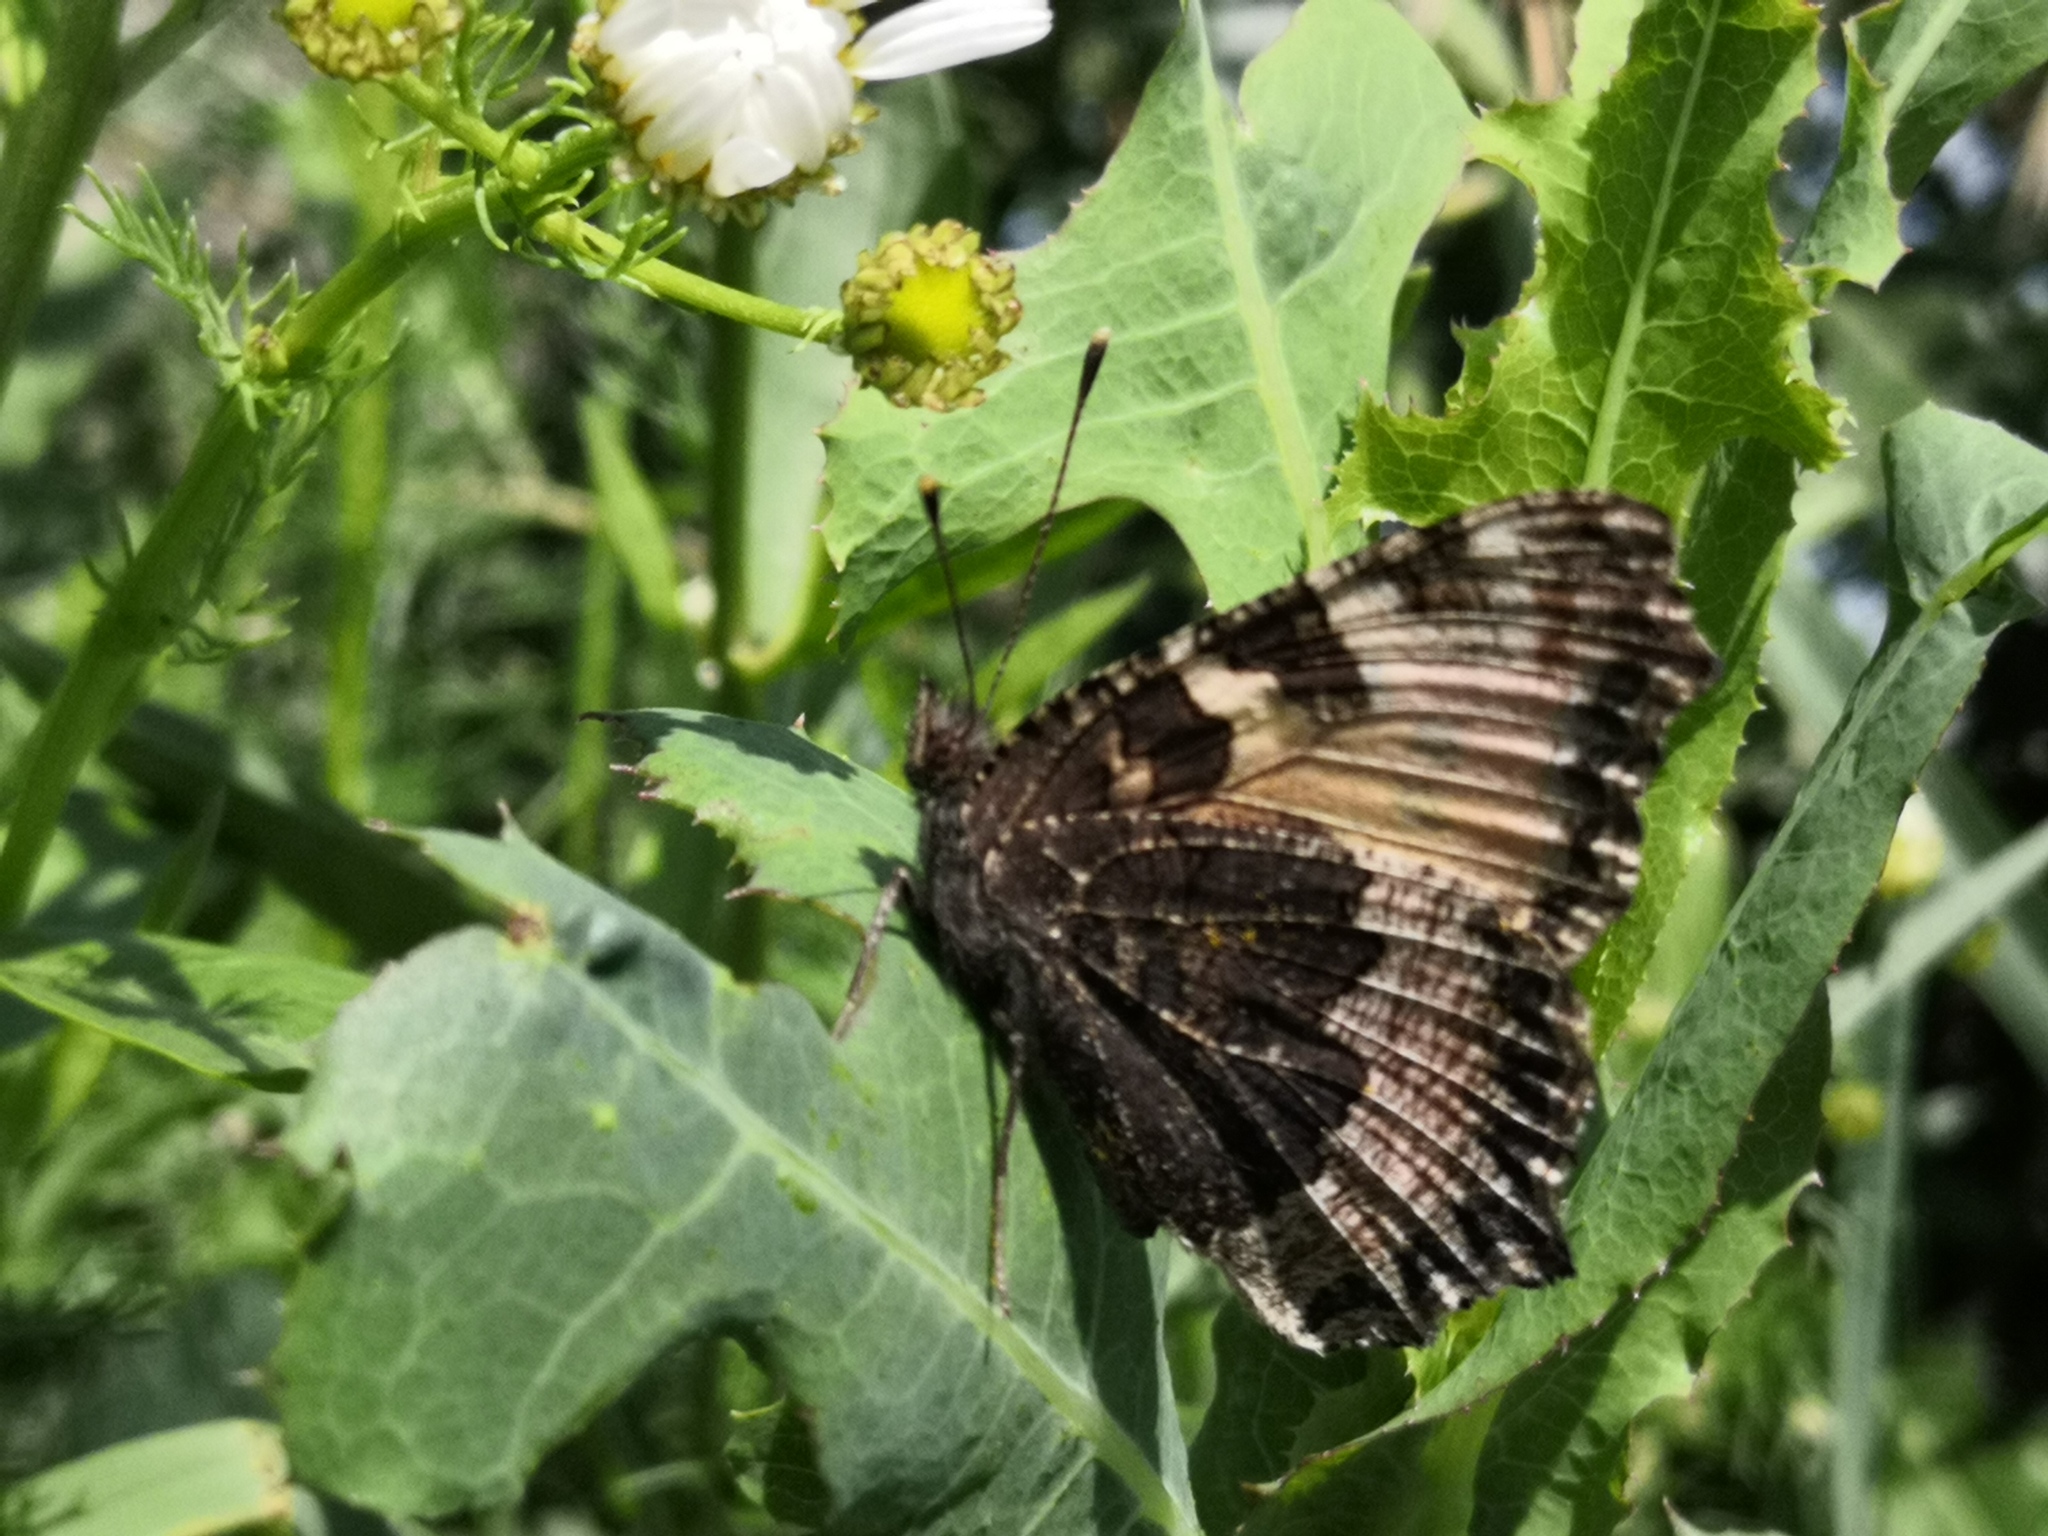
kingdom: Animalia
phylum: Arthropoda
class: Insecta
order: Lepidoptera
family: Nymphalidae
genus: Aglais
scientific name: Aglais urticae
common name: Small tortoiseshell
